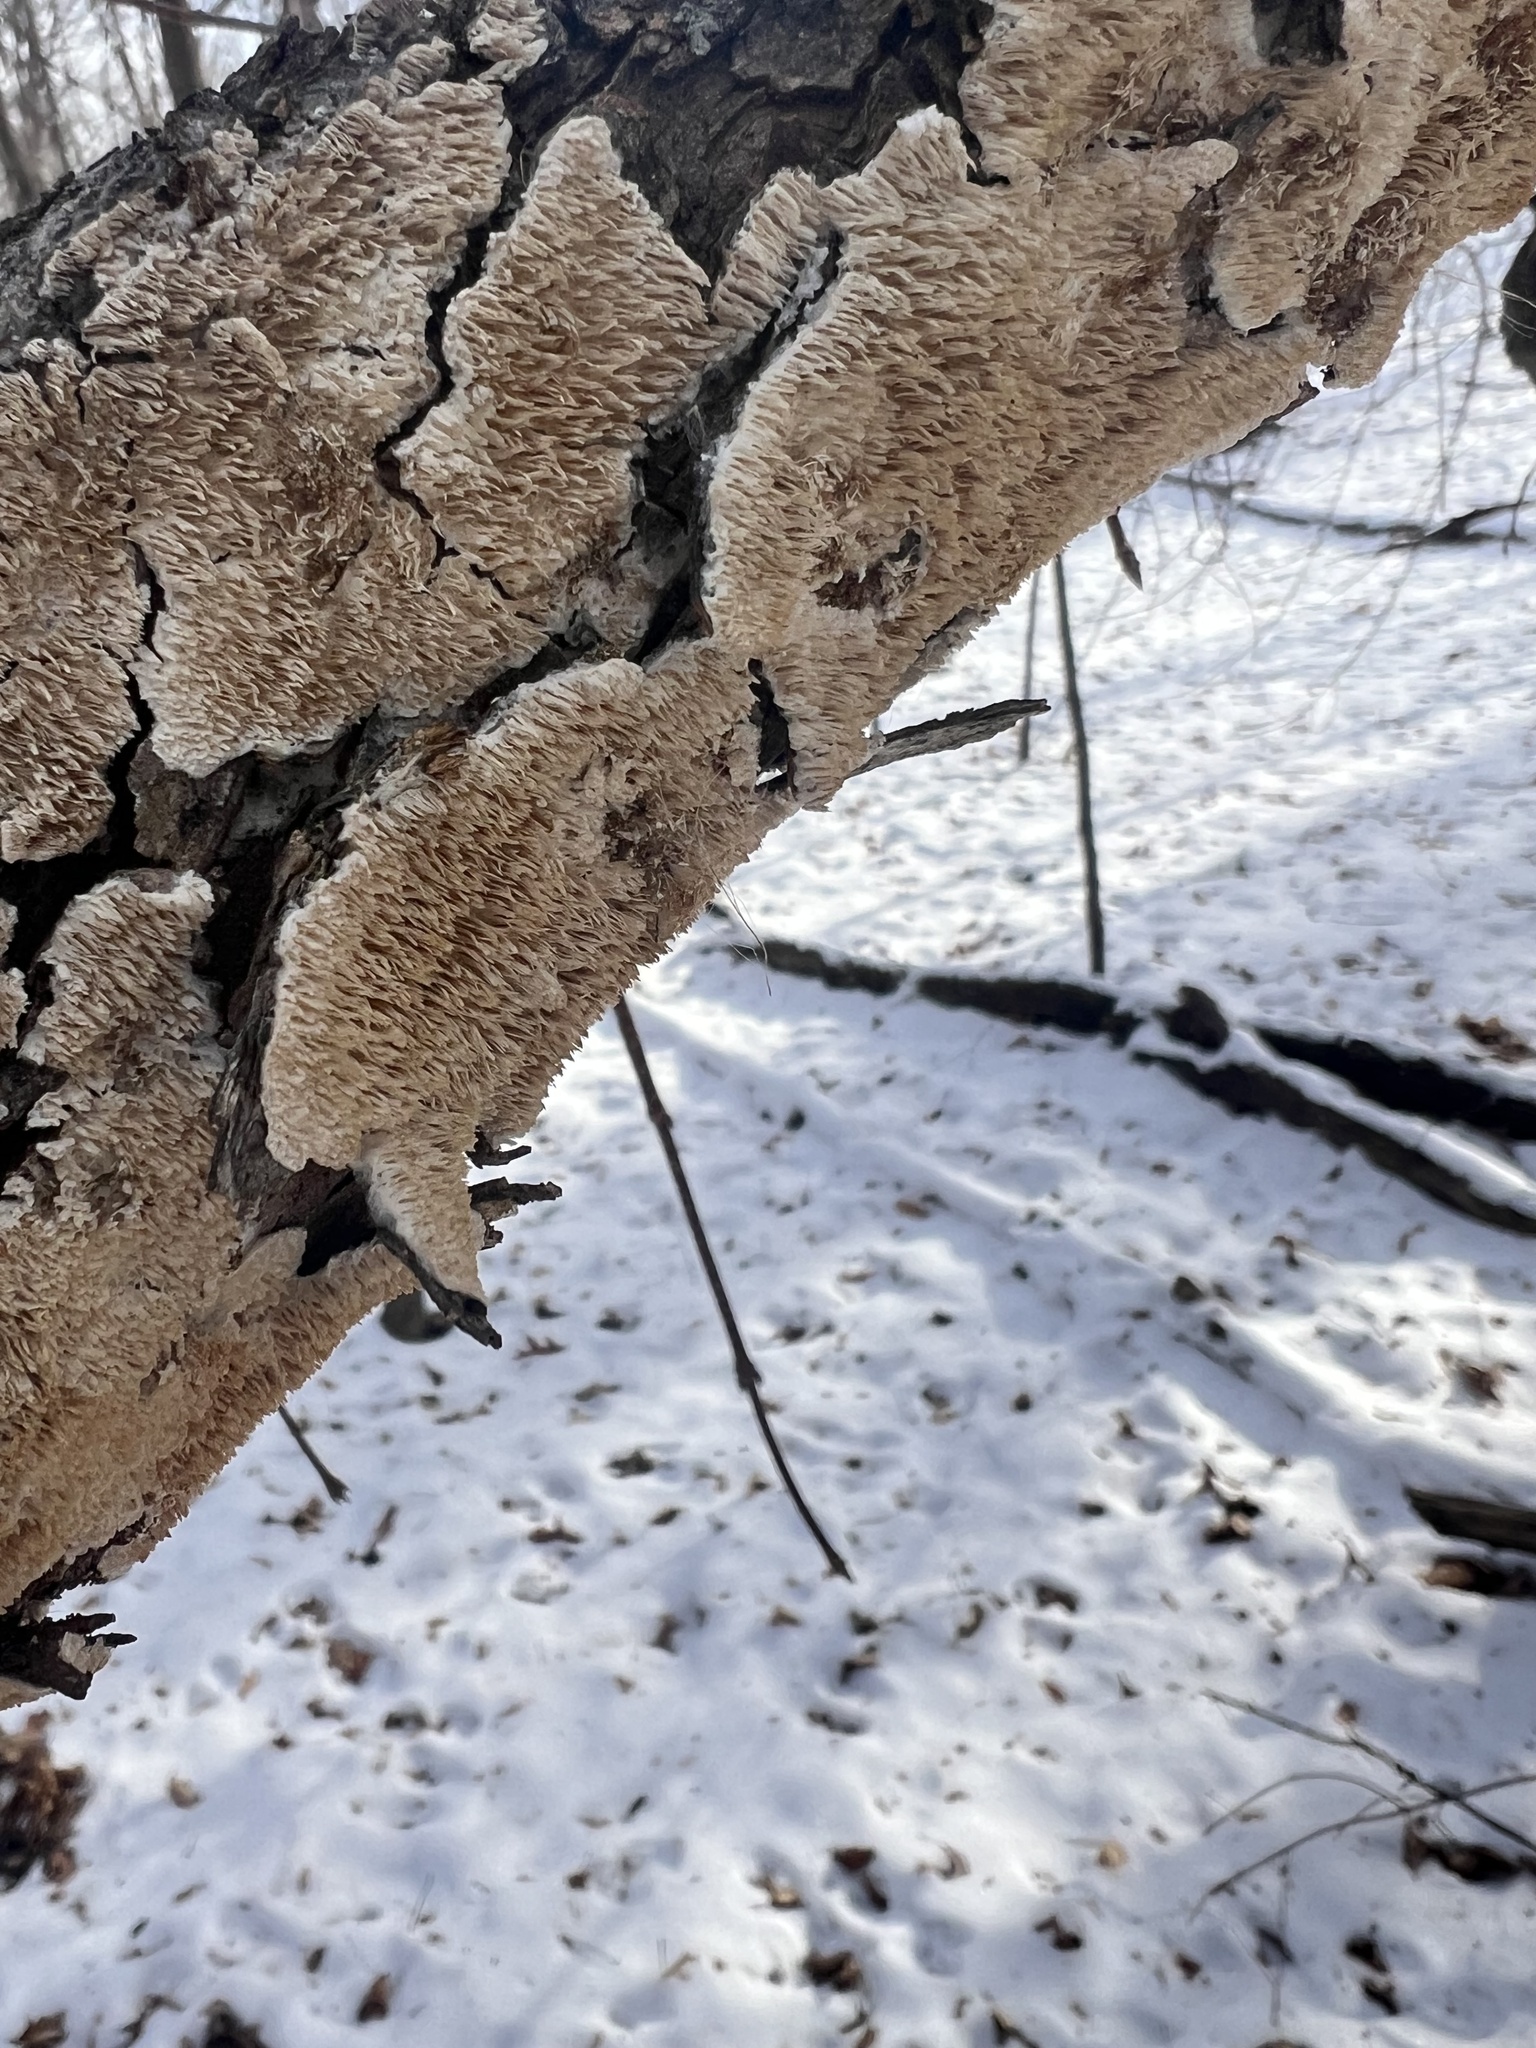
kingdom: Fungi
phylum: Basidiomycota
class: Agaricomycetes
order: Polyporales
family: Irpicaceae
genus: Irpex
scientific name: Irpex lacteus
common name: Milk-white toothed polypore
